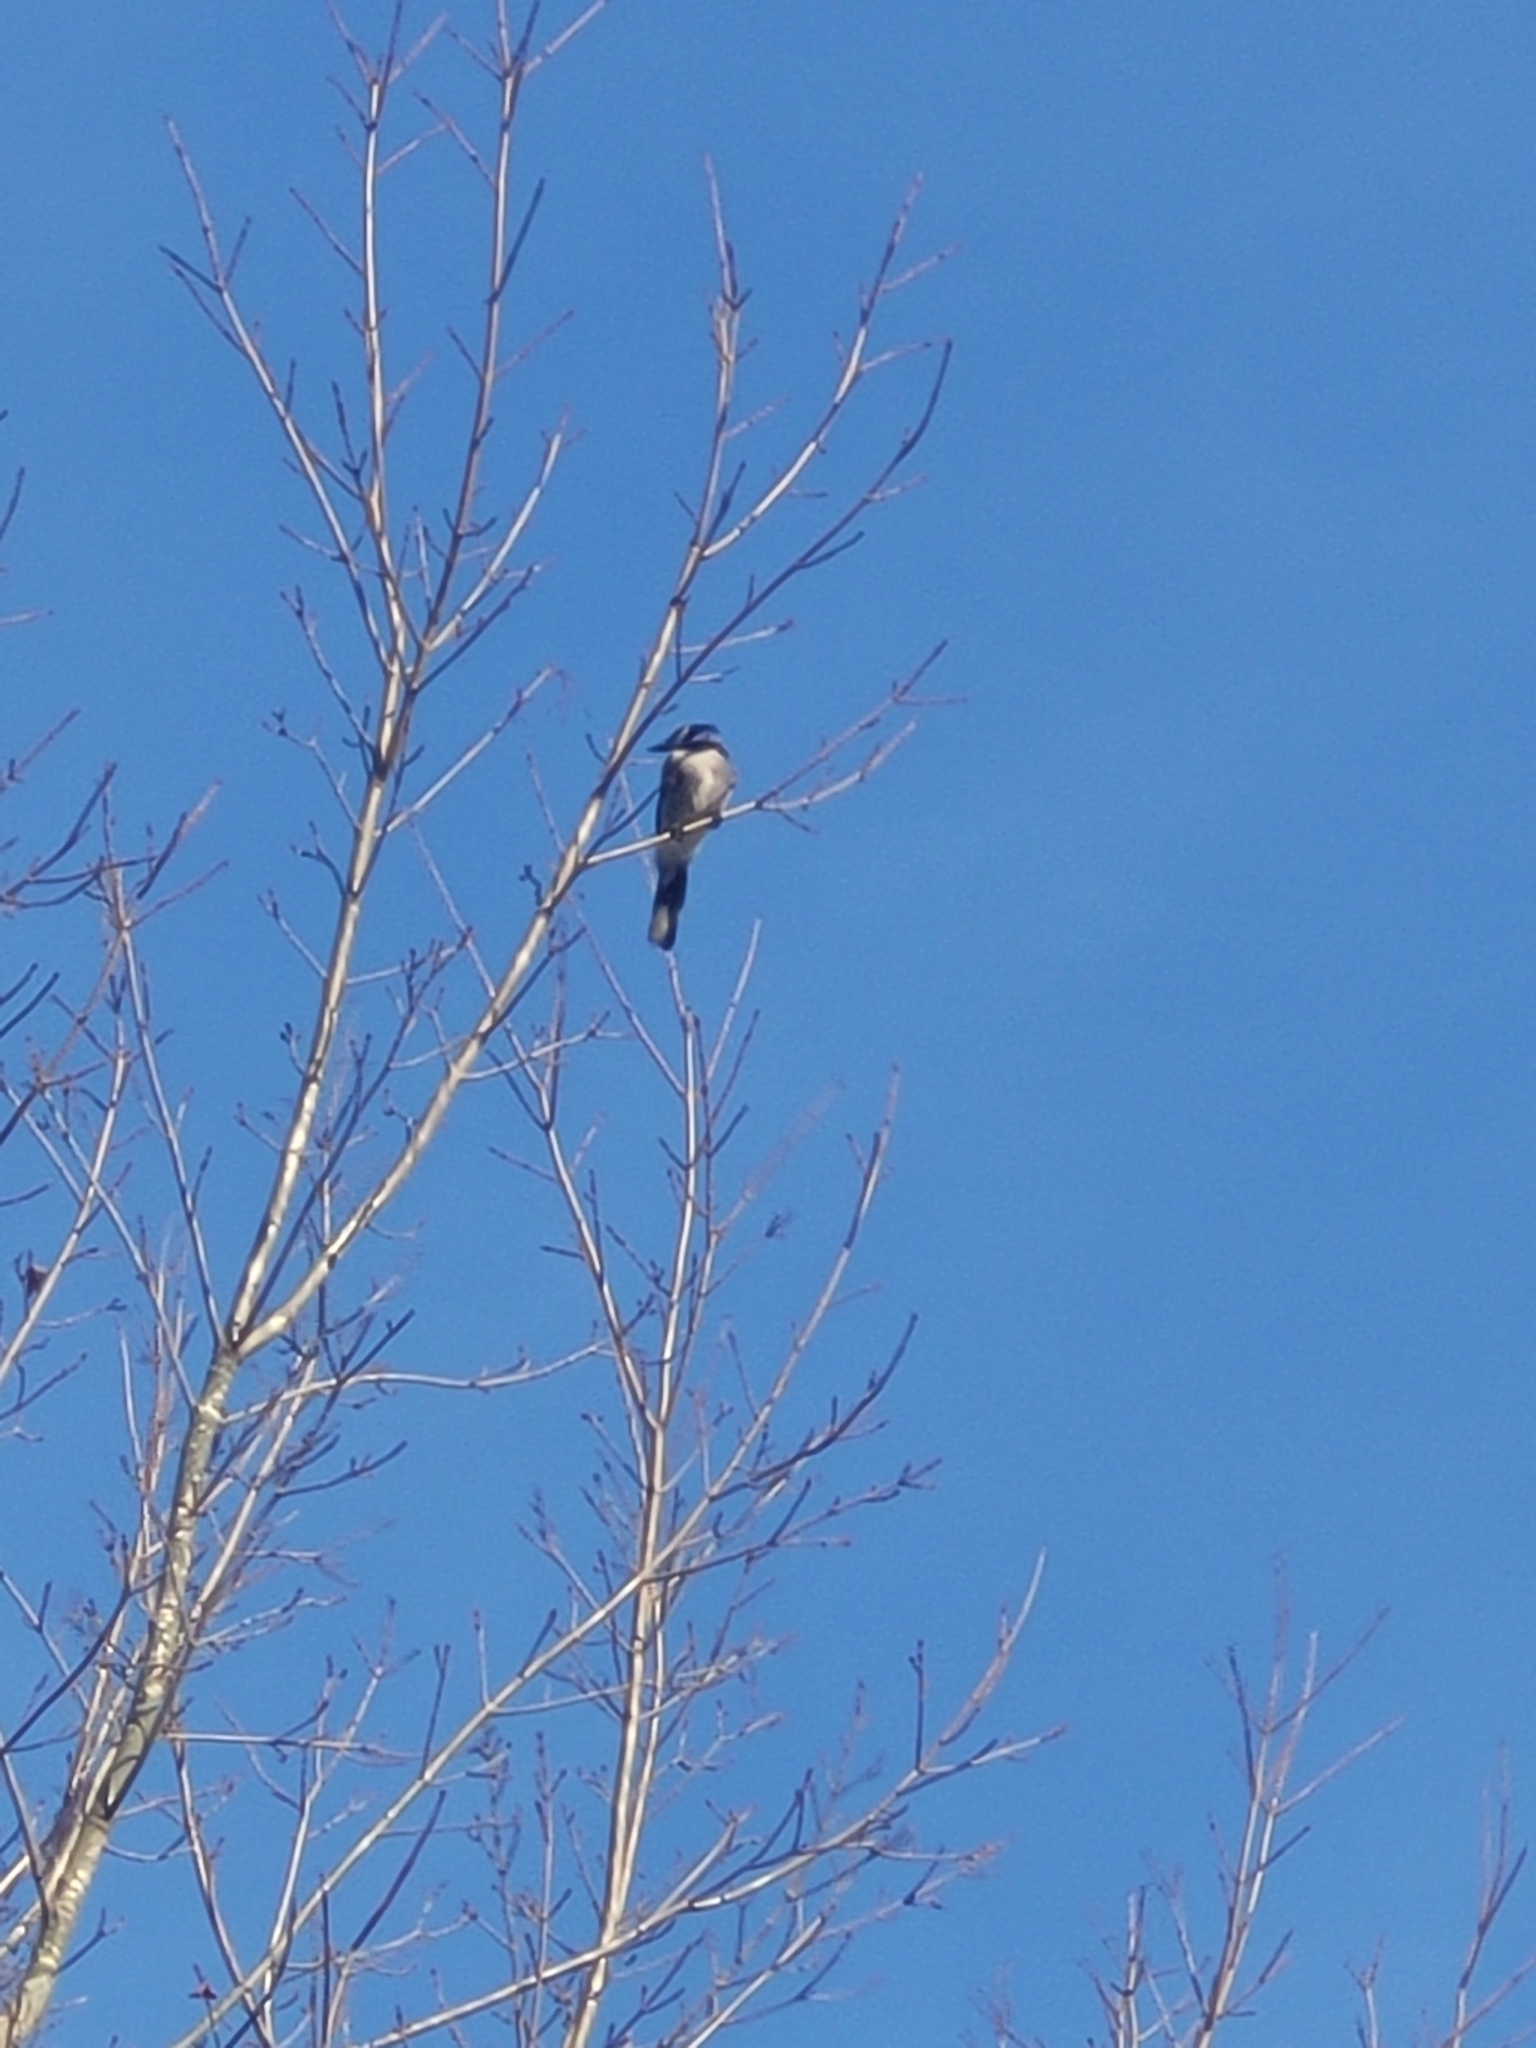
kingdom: Animalia
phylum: Chordata
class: Aves
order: Passeriformes
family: Corvidae
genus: Cyanocitta
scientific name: Cyanocitta cristata
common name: Blue jay
